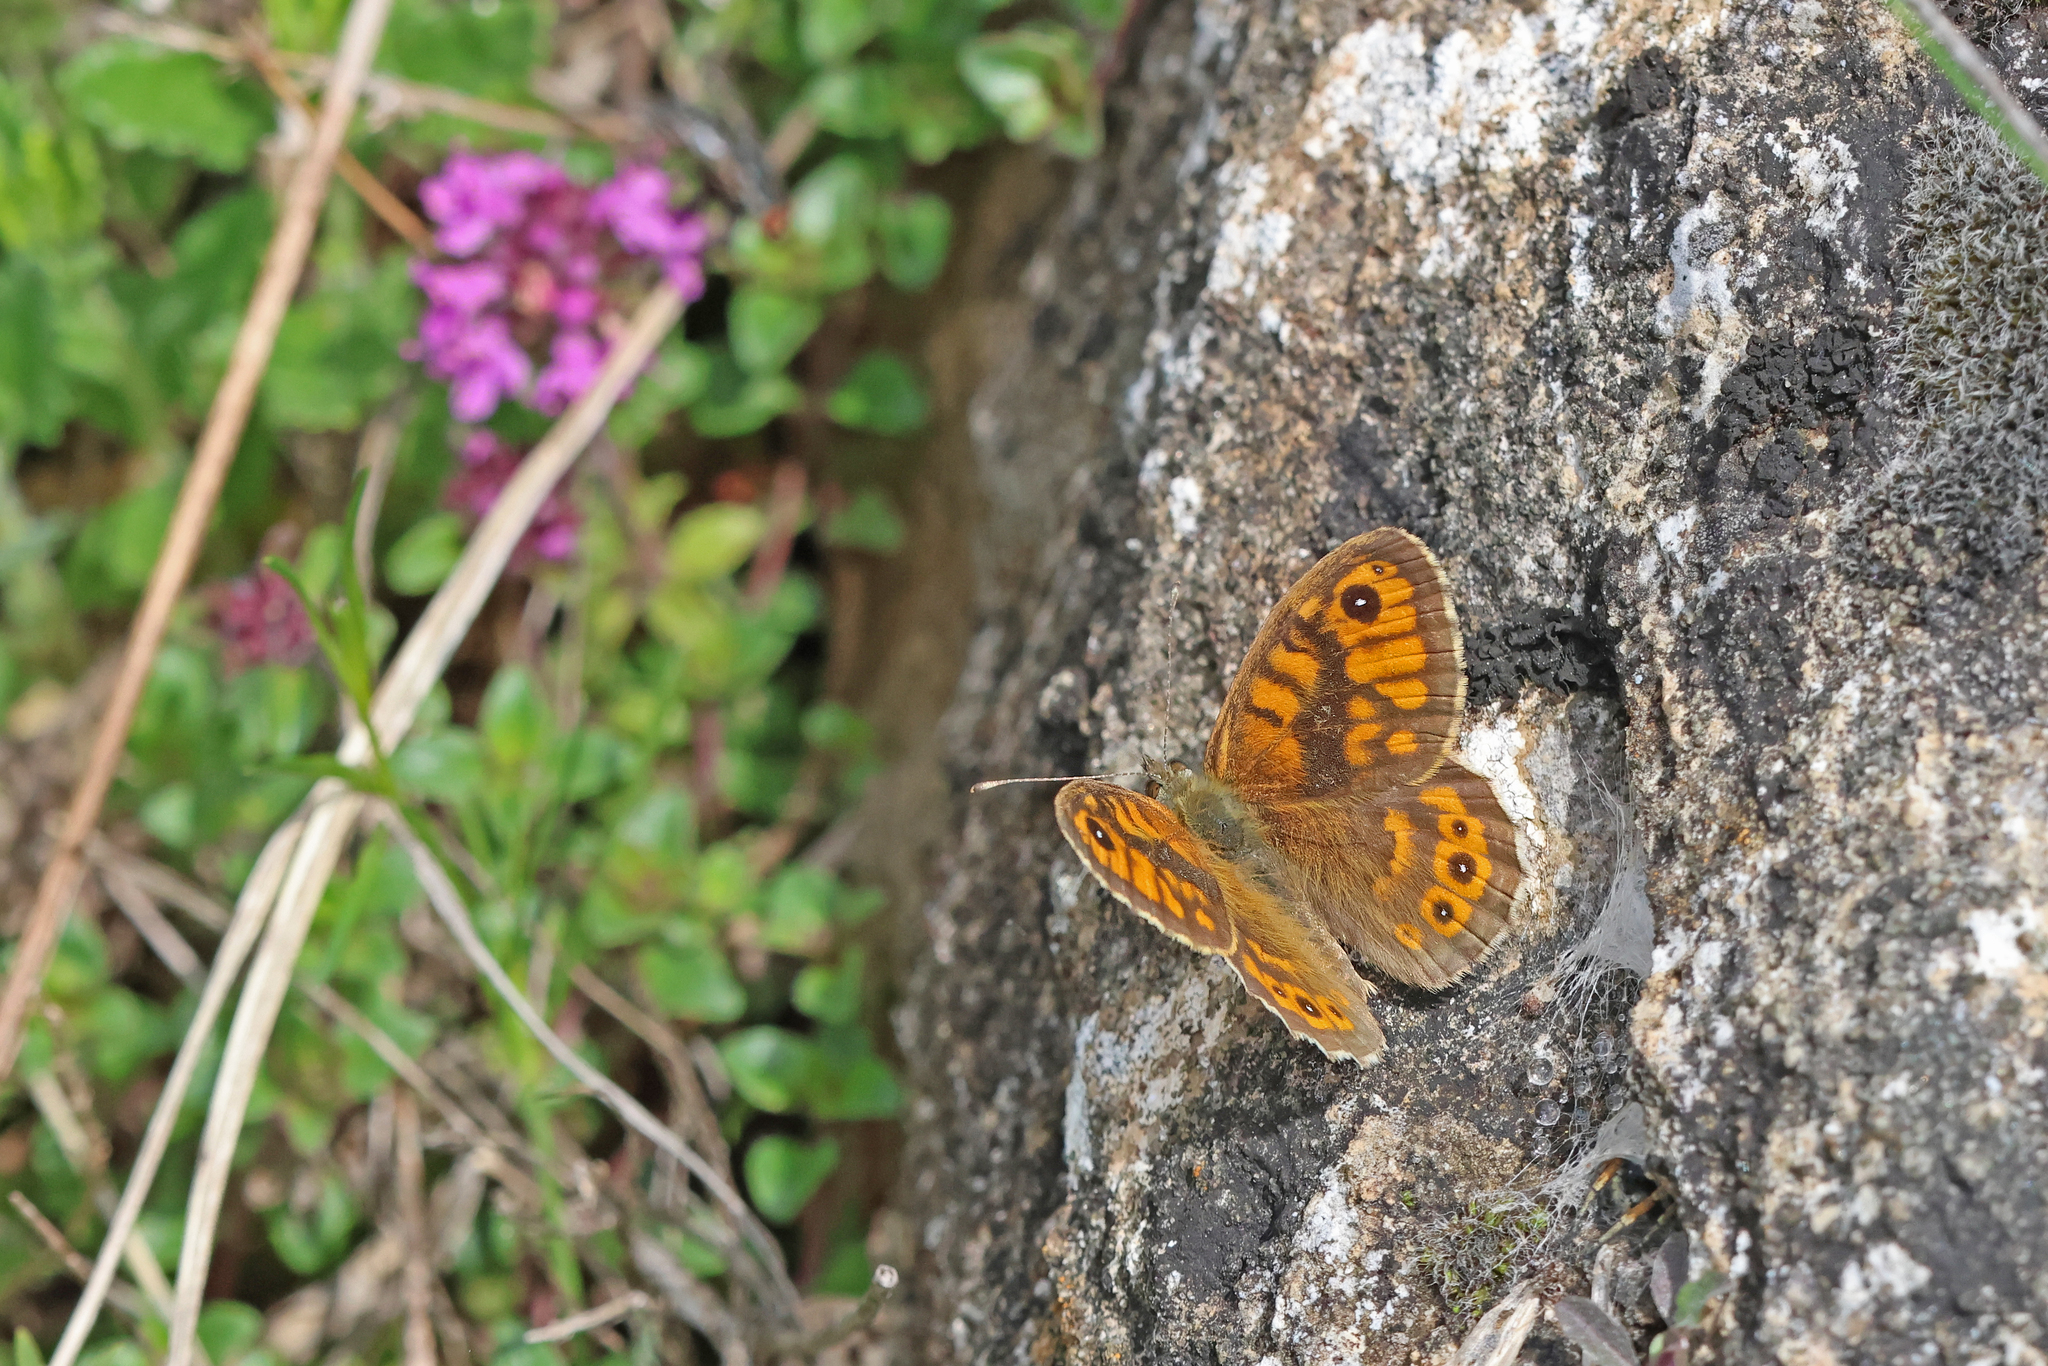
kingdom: Animalia
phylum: Arthropoda
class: Insecta
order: Lepidoptera
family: Nymphalidae
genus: Pararge
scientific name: Pararge Lasiommata megera
